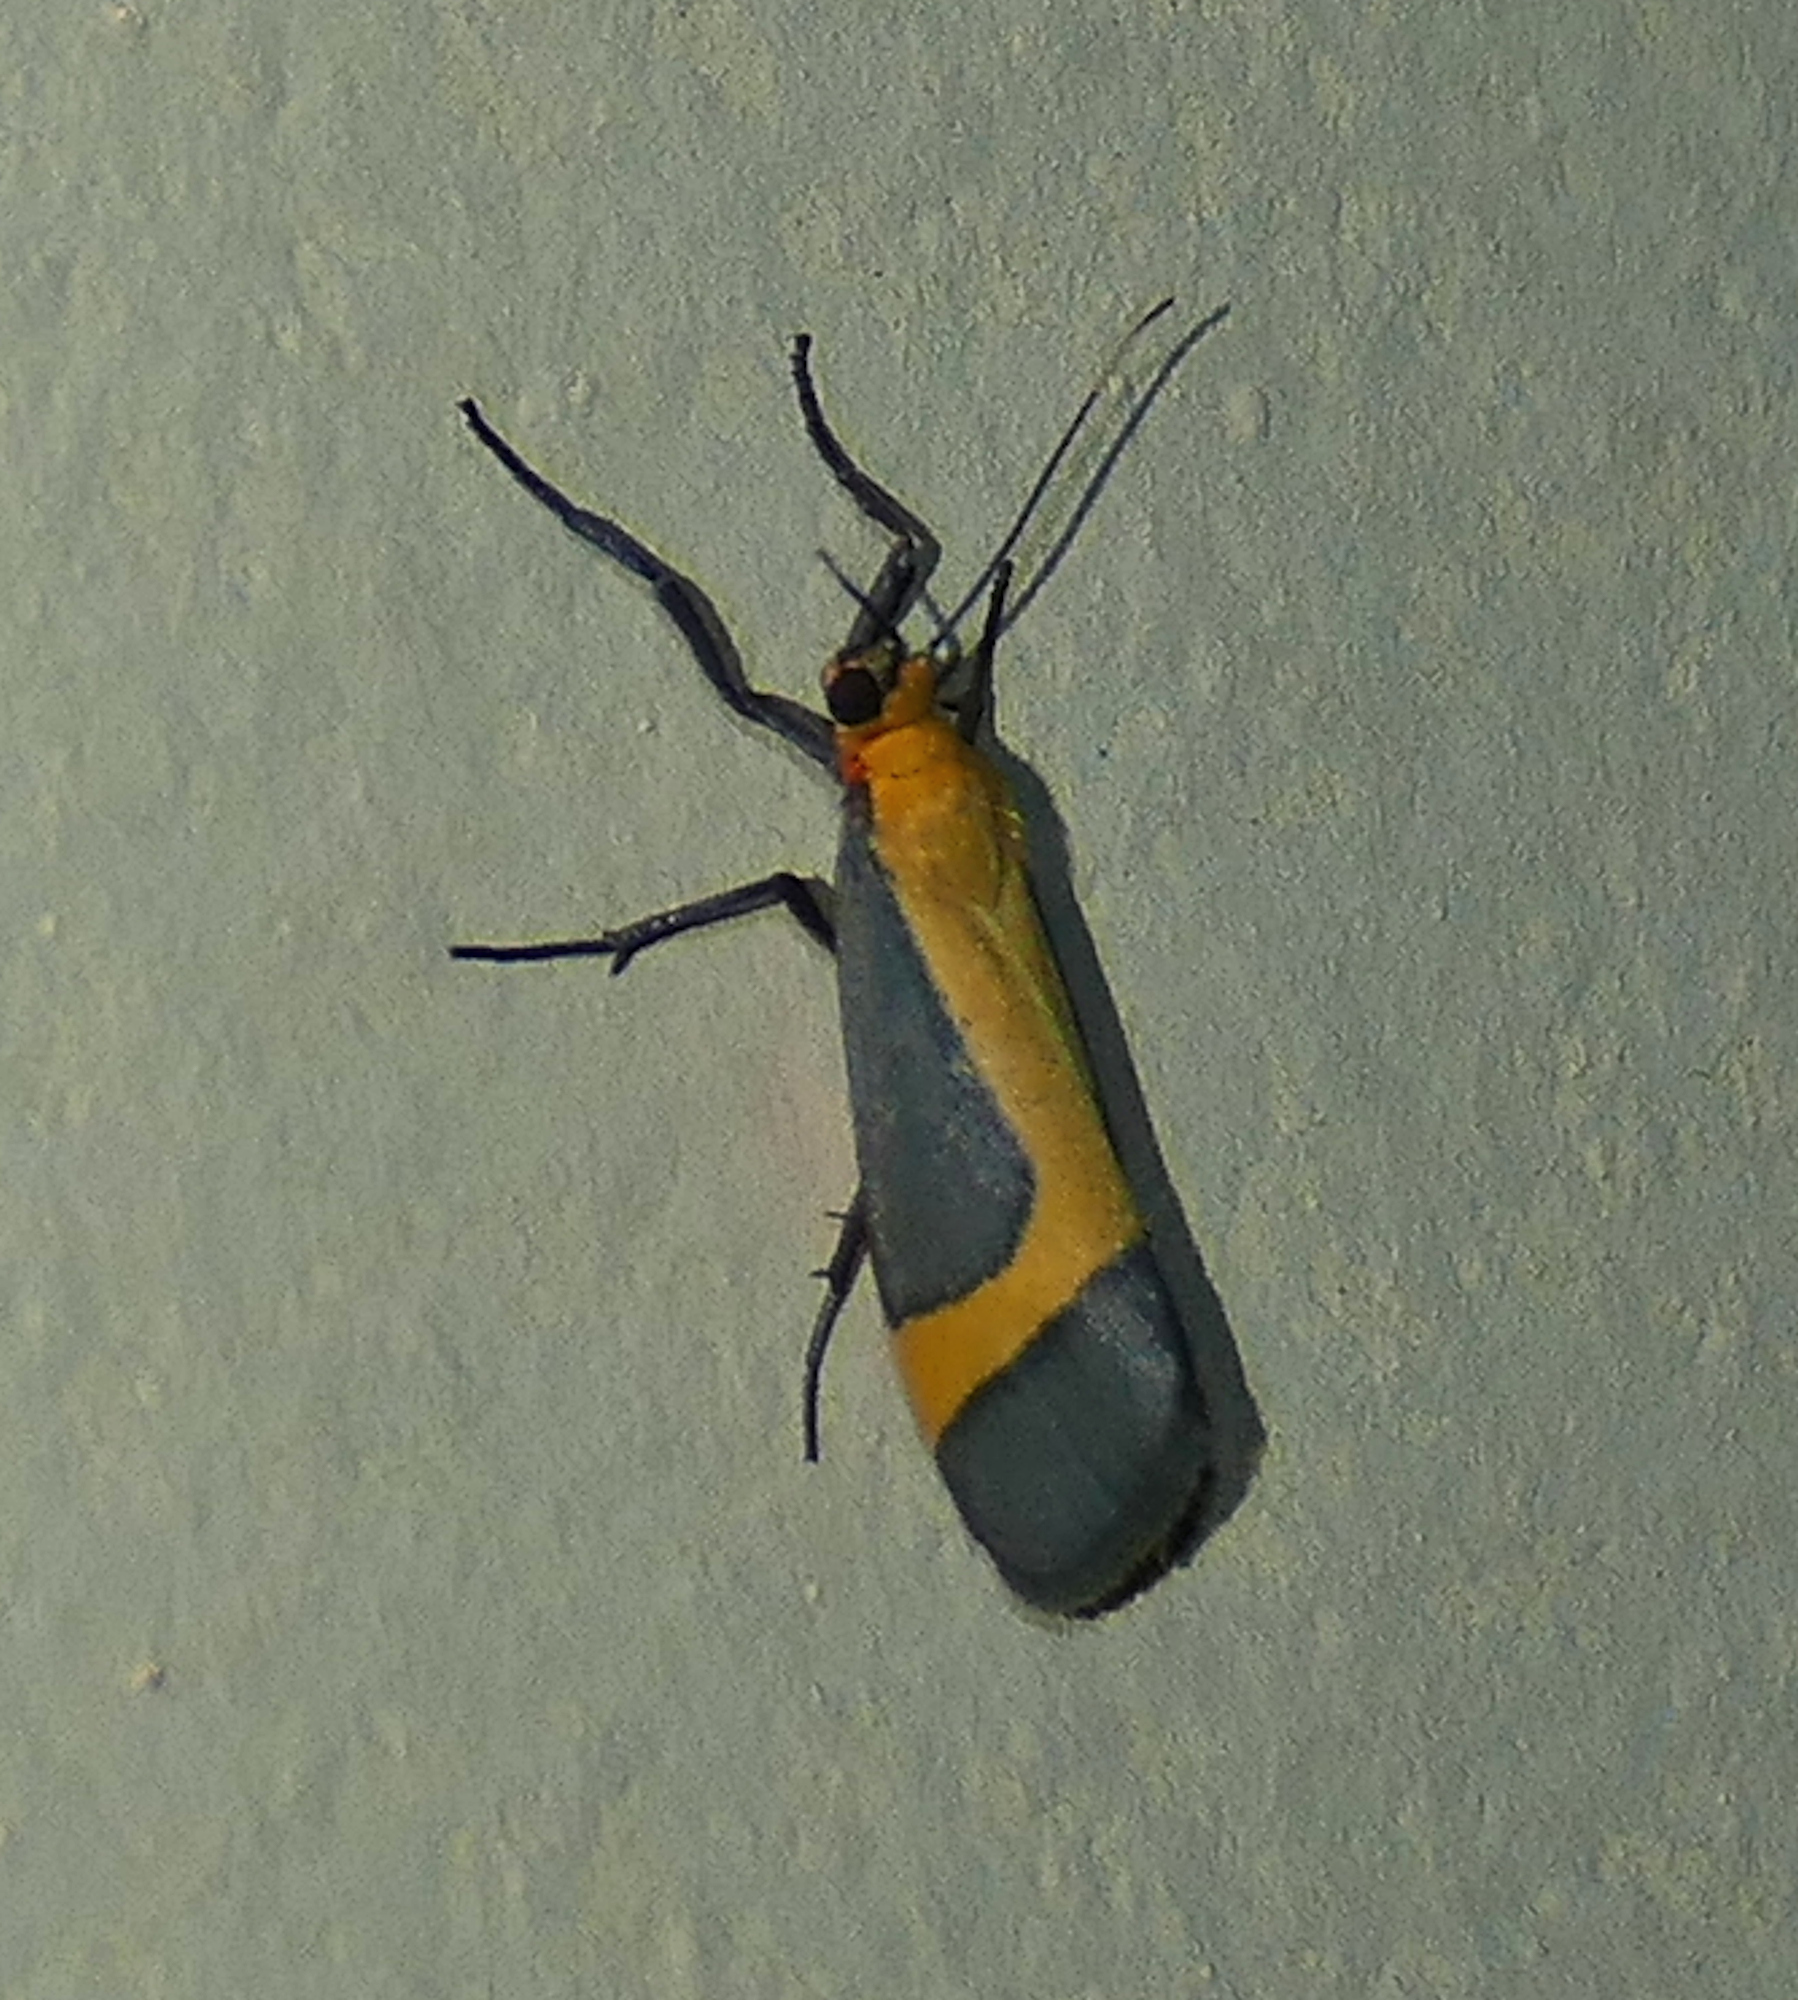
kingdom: Animalia
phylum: Arthropoda
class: Insecta
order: Lepidoptera
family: Erebidae
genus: Cisthene
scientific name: Cisthene angelus
